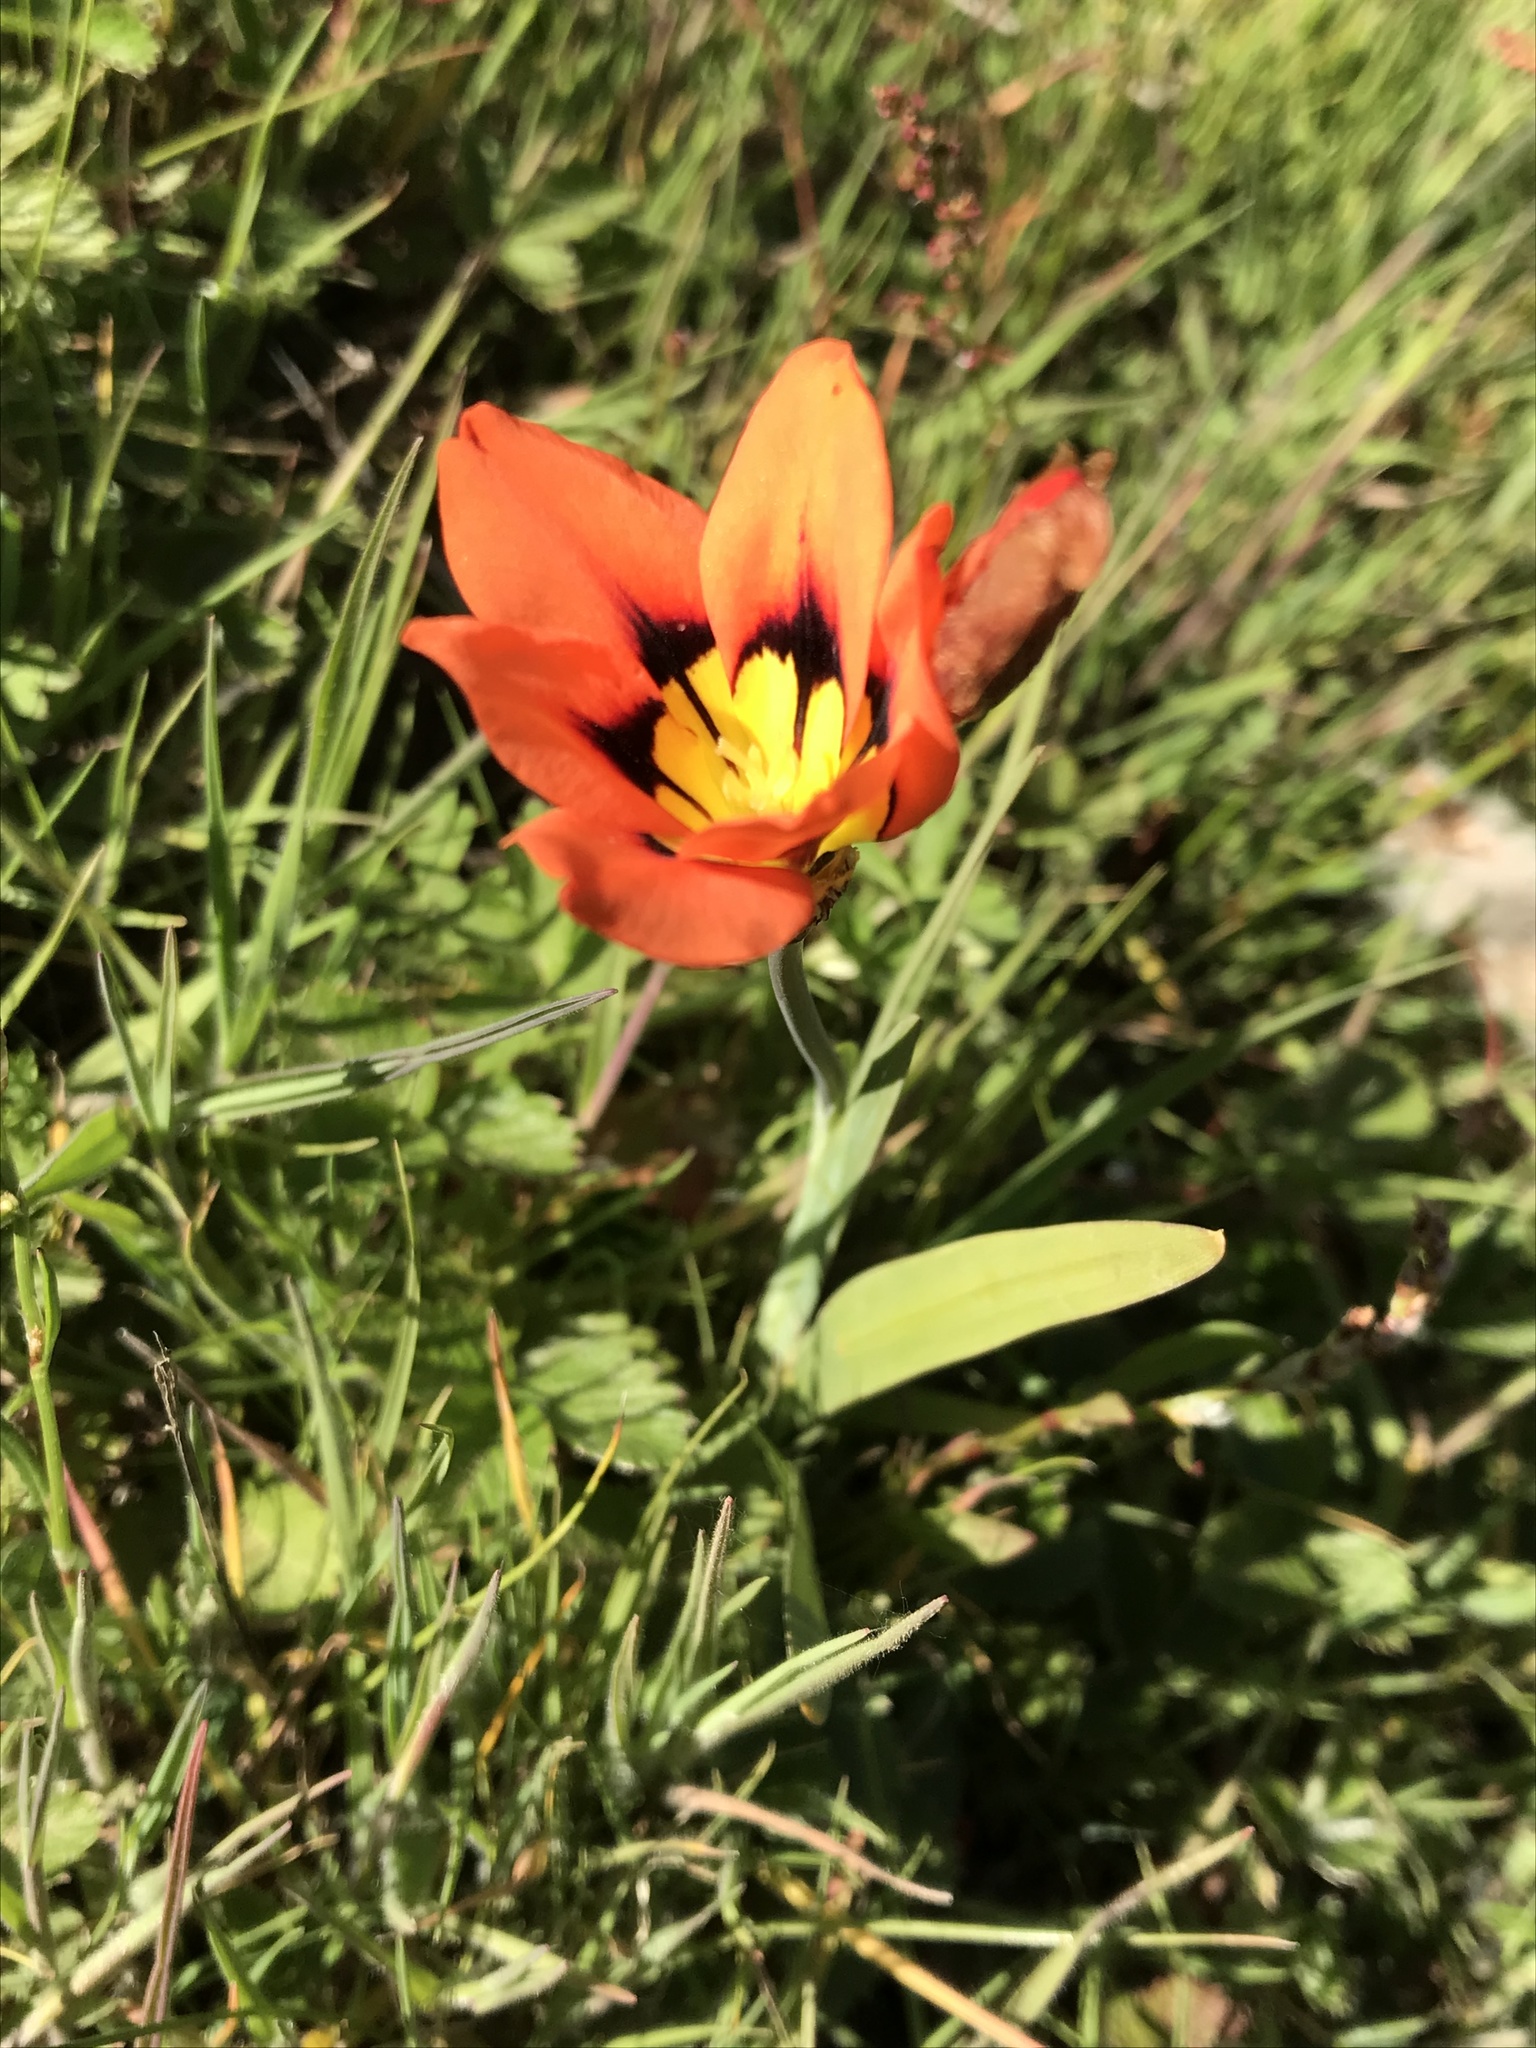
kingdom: Plantae
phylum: Tracheophyta
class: Liliopsida
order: Asparagales
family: Iridaceae
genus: Sparaxis
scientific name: Sparaxis tricolor
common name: Wandflower
